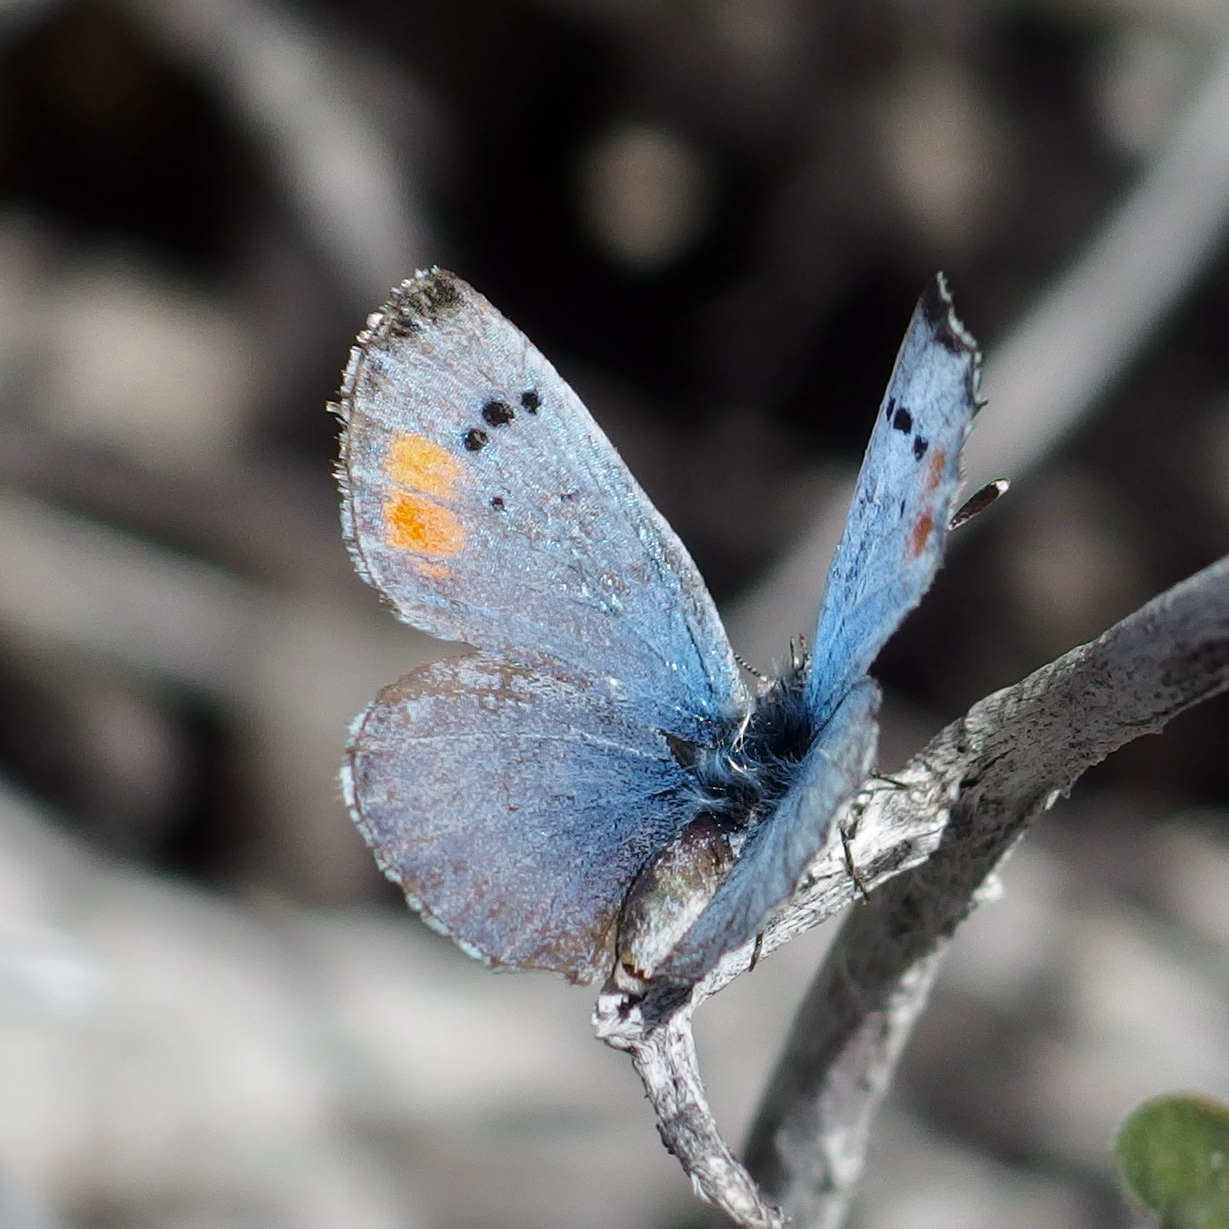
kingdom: Animalia
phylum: Arthropoda
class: Insecta
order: Lepidoptera
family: Lycaenidae
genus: Philotes
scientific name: Philotes sonorensis
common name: Sonoran blue
